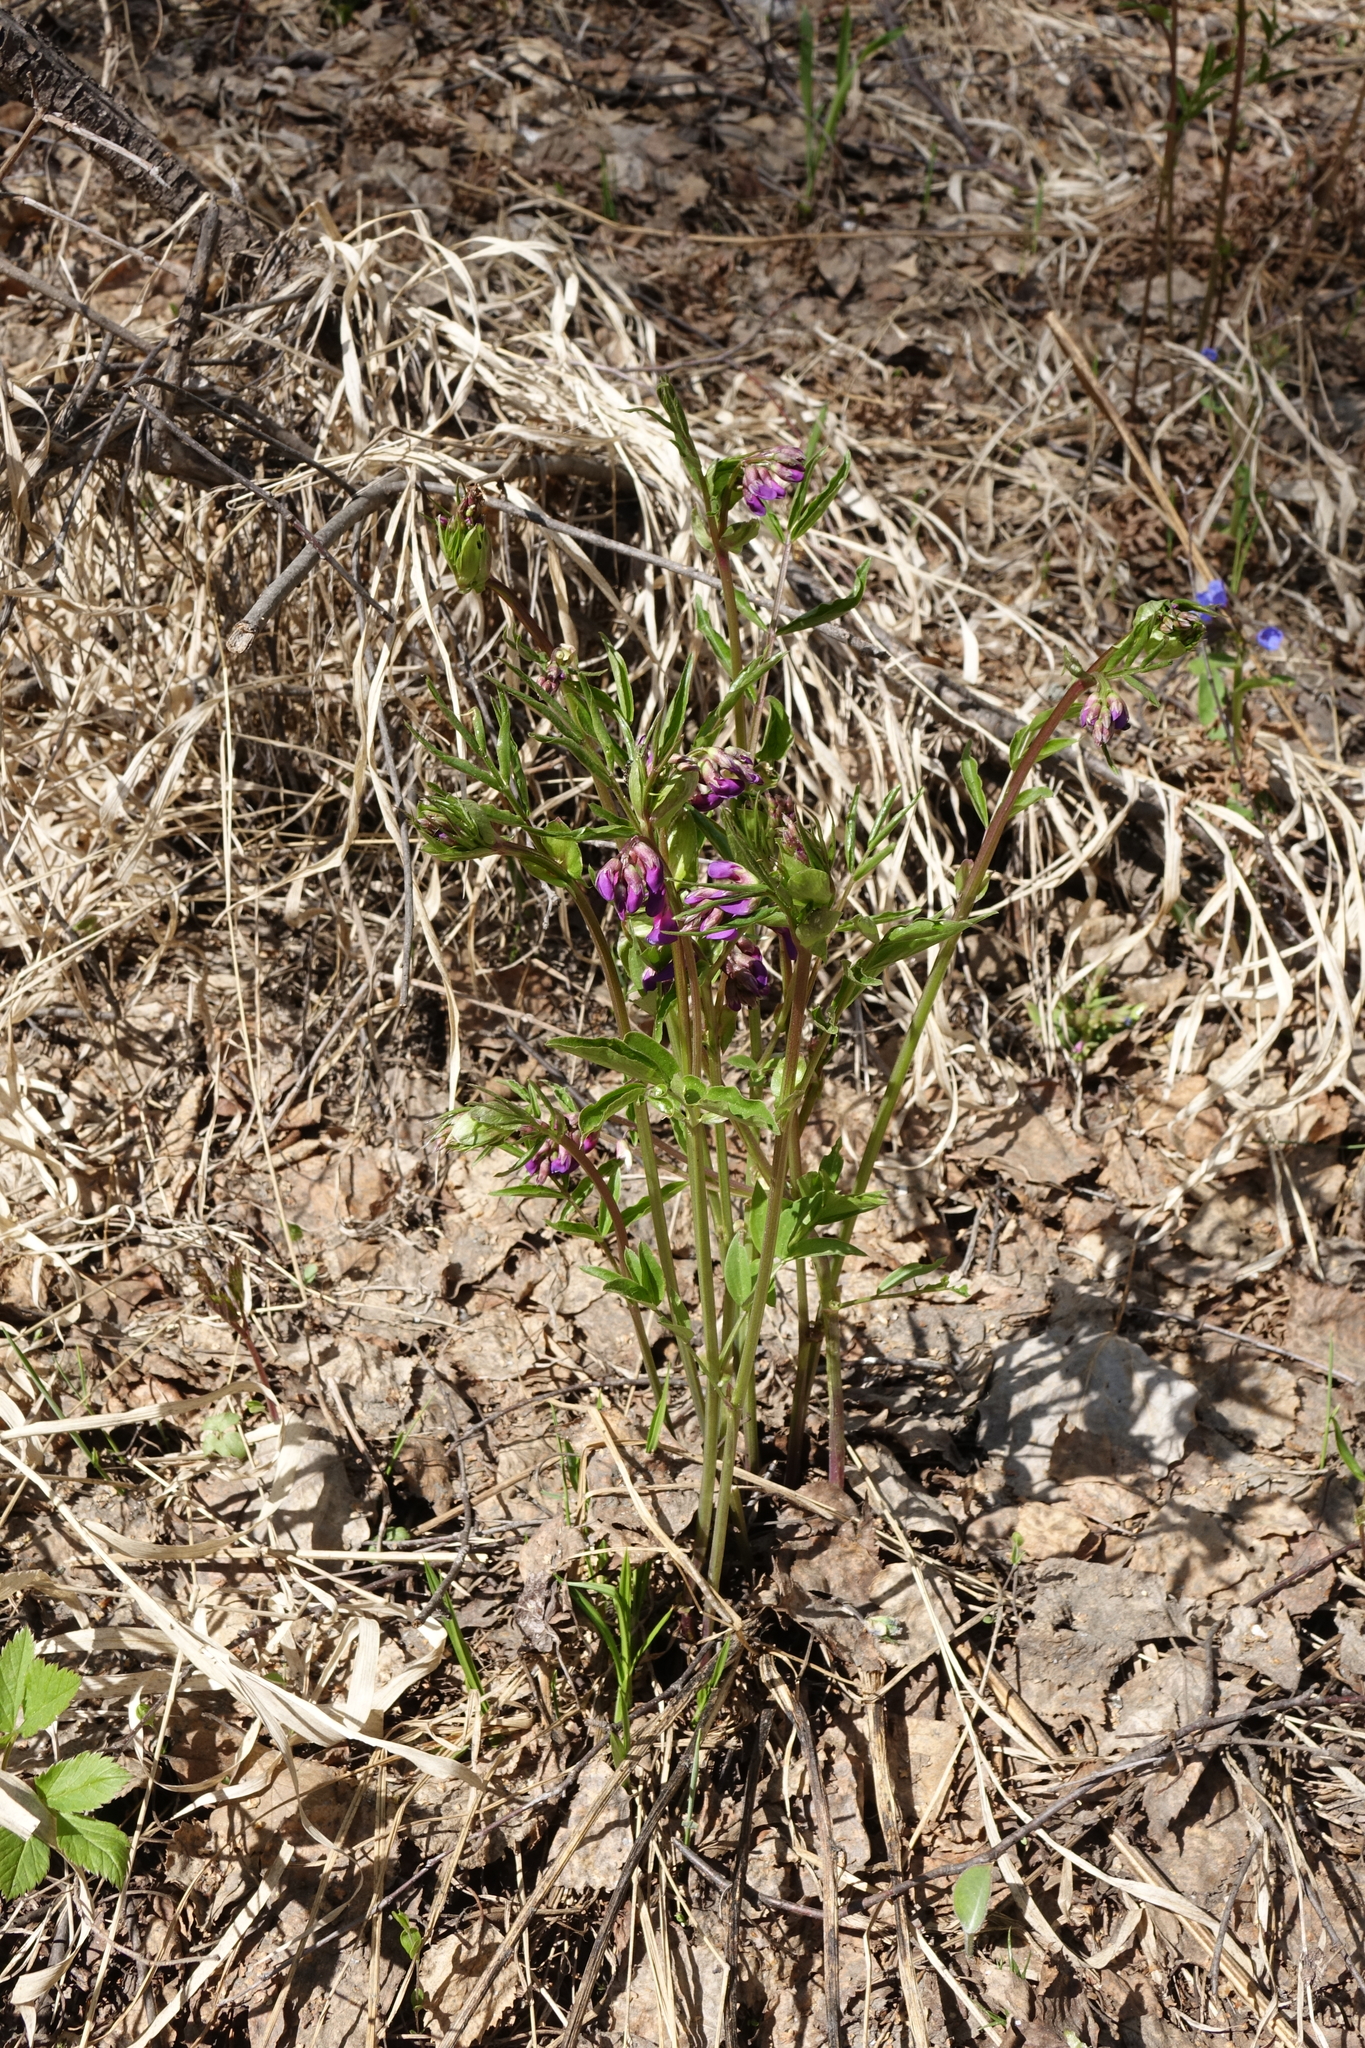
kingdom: Plantae
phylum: Tracheophyta
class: Magnoliopsida
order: Fabales
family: Fabaceae
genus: Lathyrus
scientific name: Lathyrus vernus
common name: Spring pea
